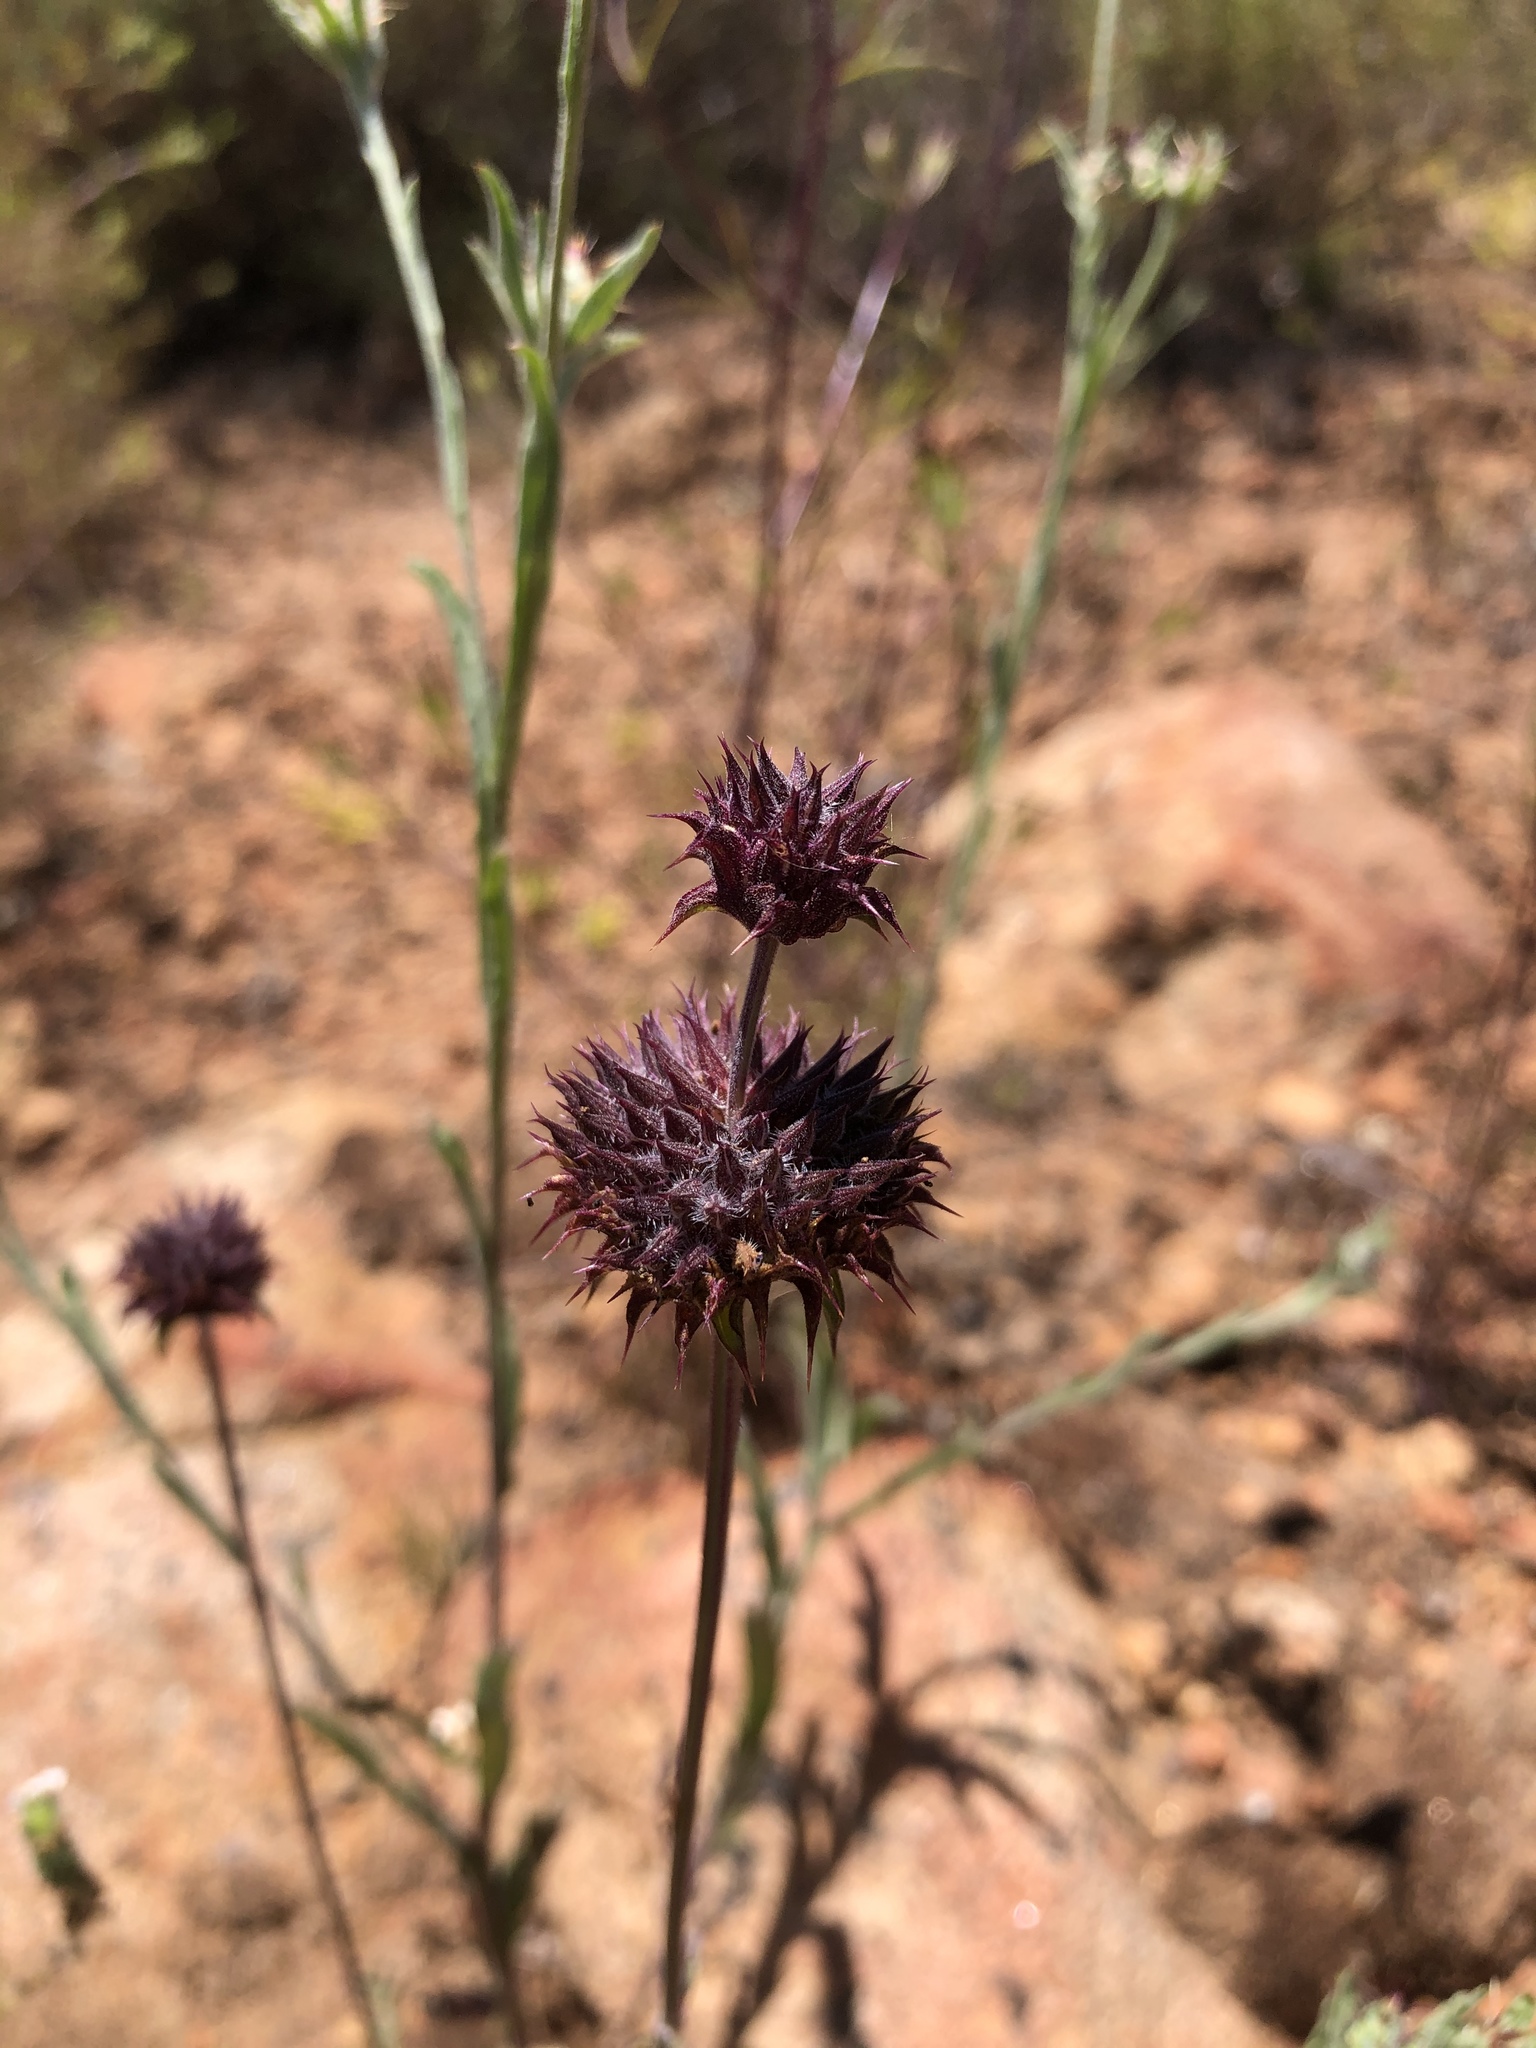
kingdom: Plantae
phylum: Tracheophyta
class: Magnoliopsida
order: Lamiales
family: Lamiaceae
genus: Salvia
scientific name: Salvia columbariae
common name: Chia
